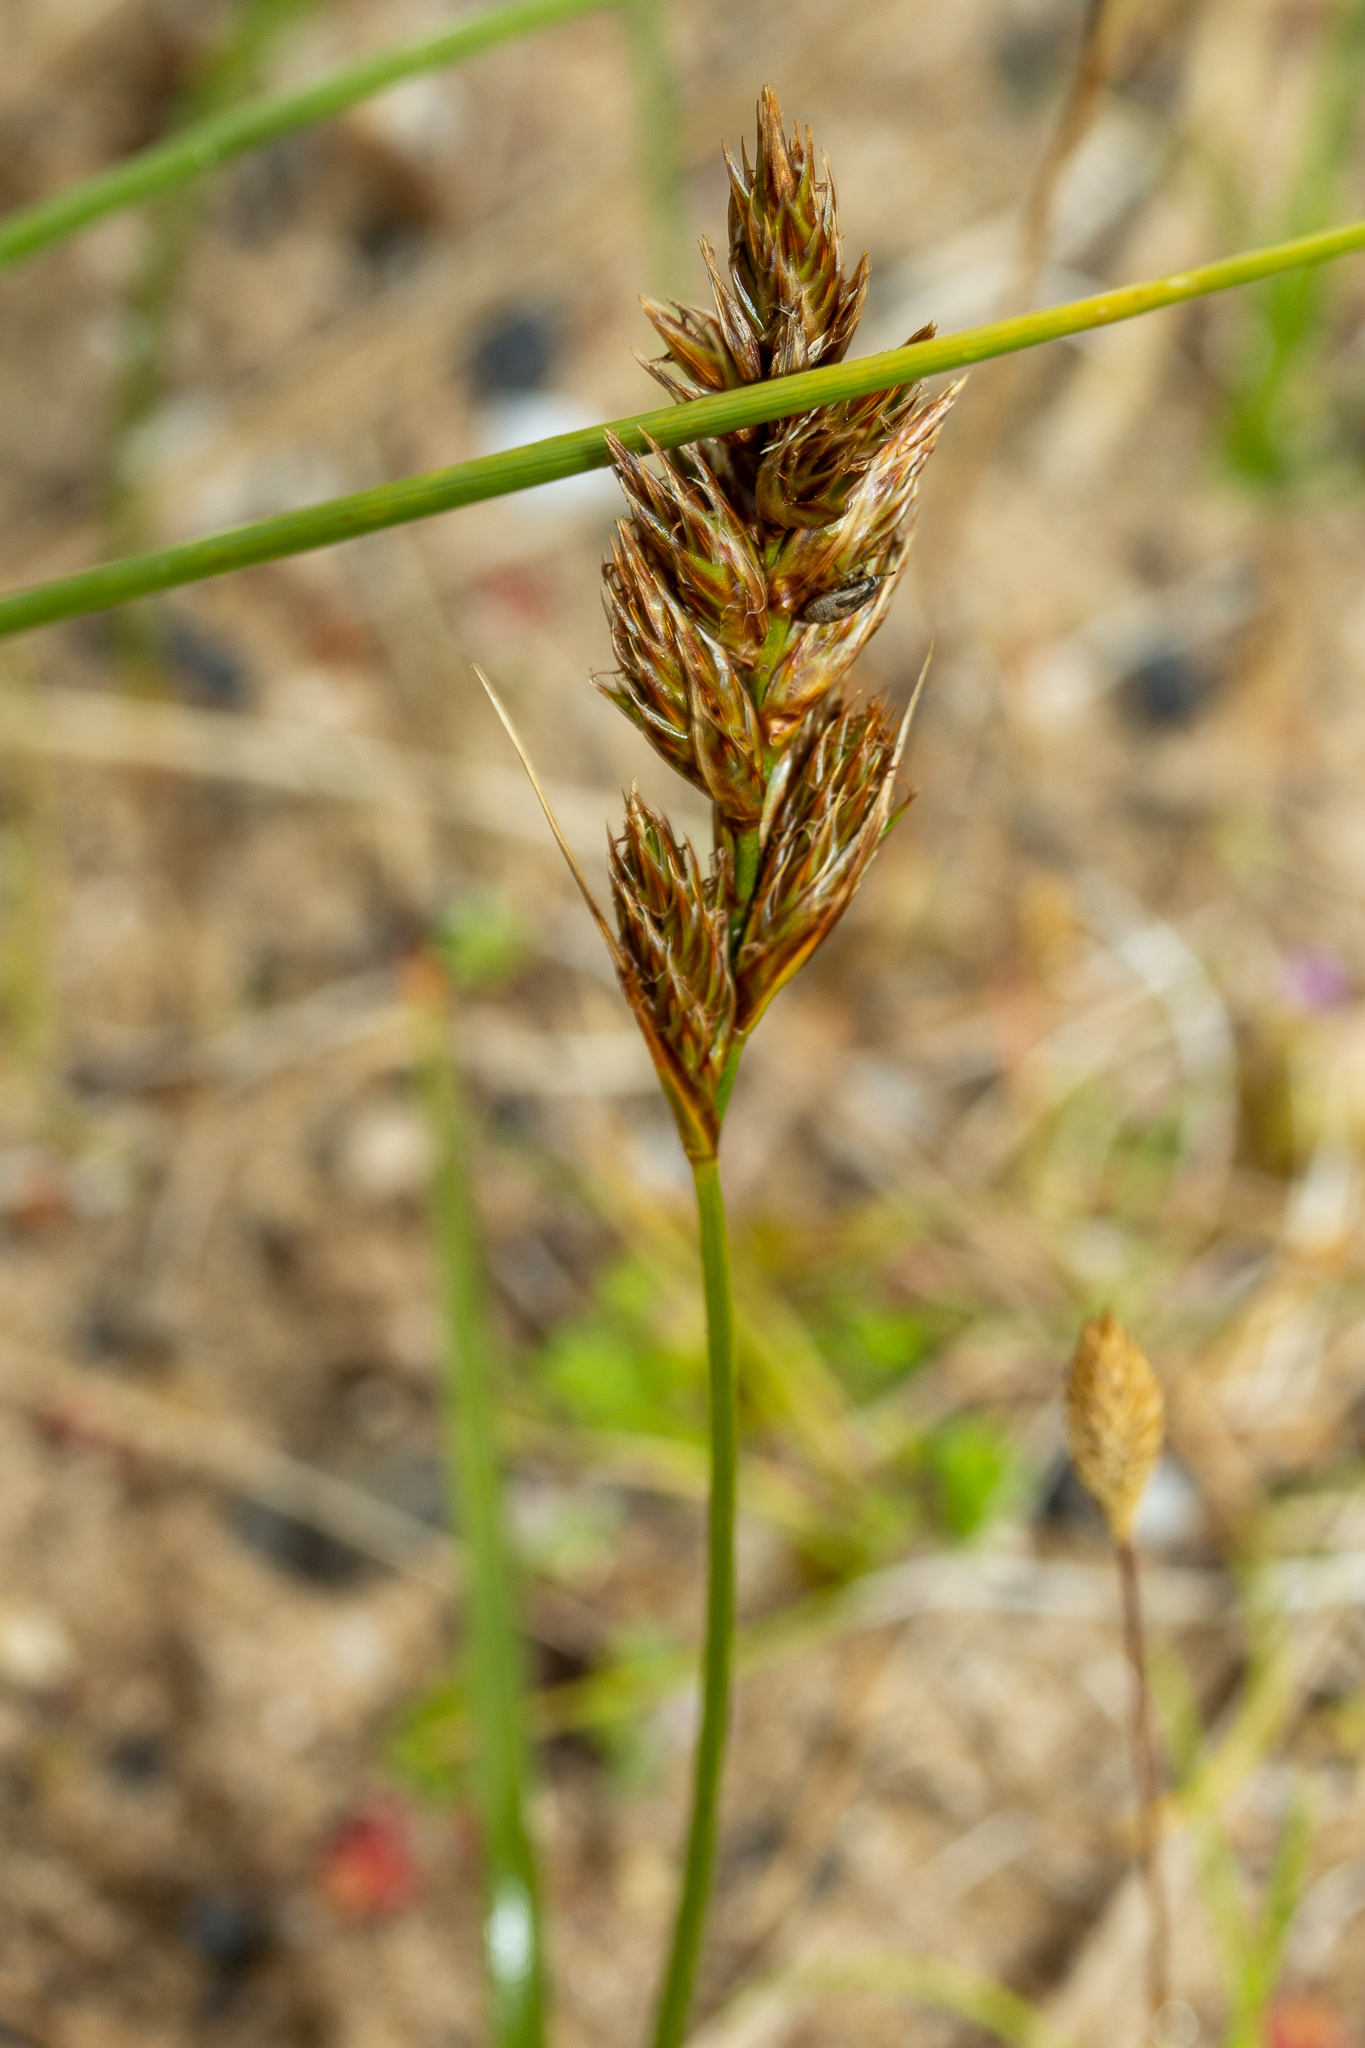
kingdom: Plantae
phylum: Tracheophyta
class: Liliopsida
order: Poales
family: Cyperaceae
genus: Carex
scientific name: Carex arenaria
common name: Sand sedge
